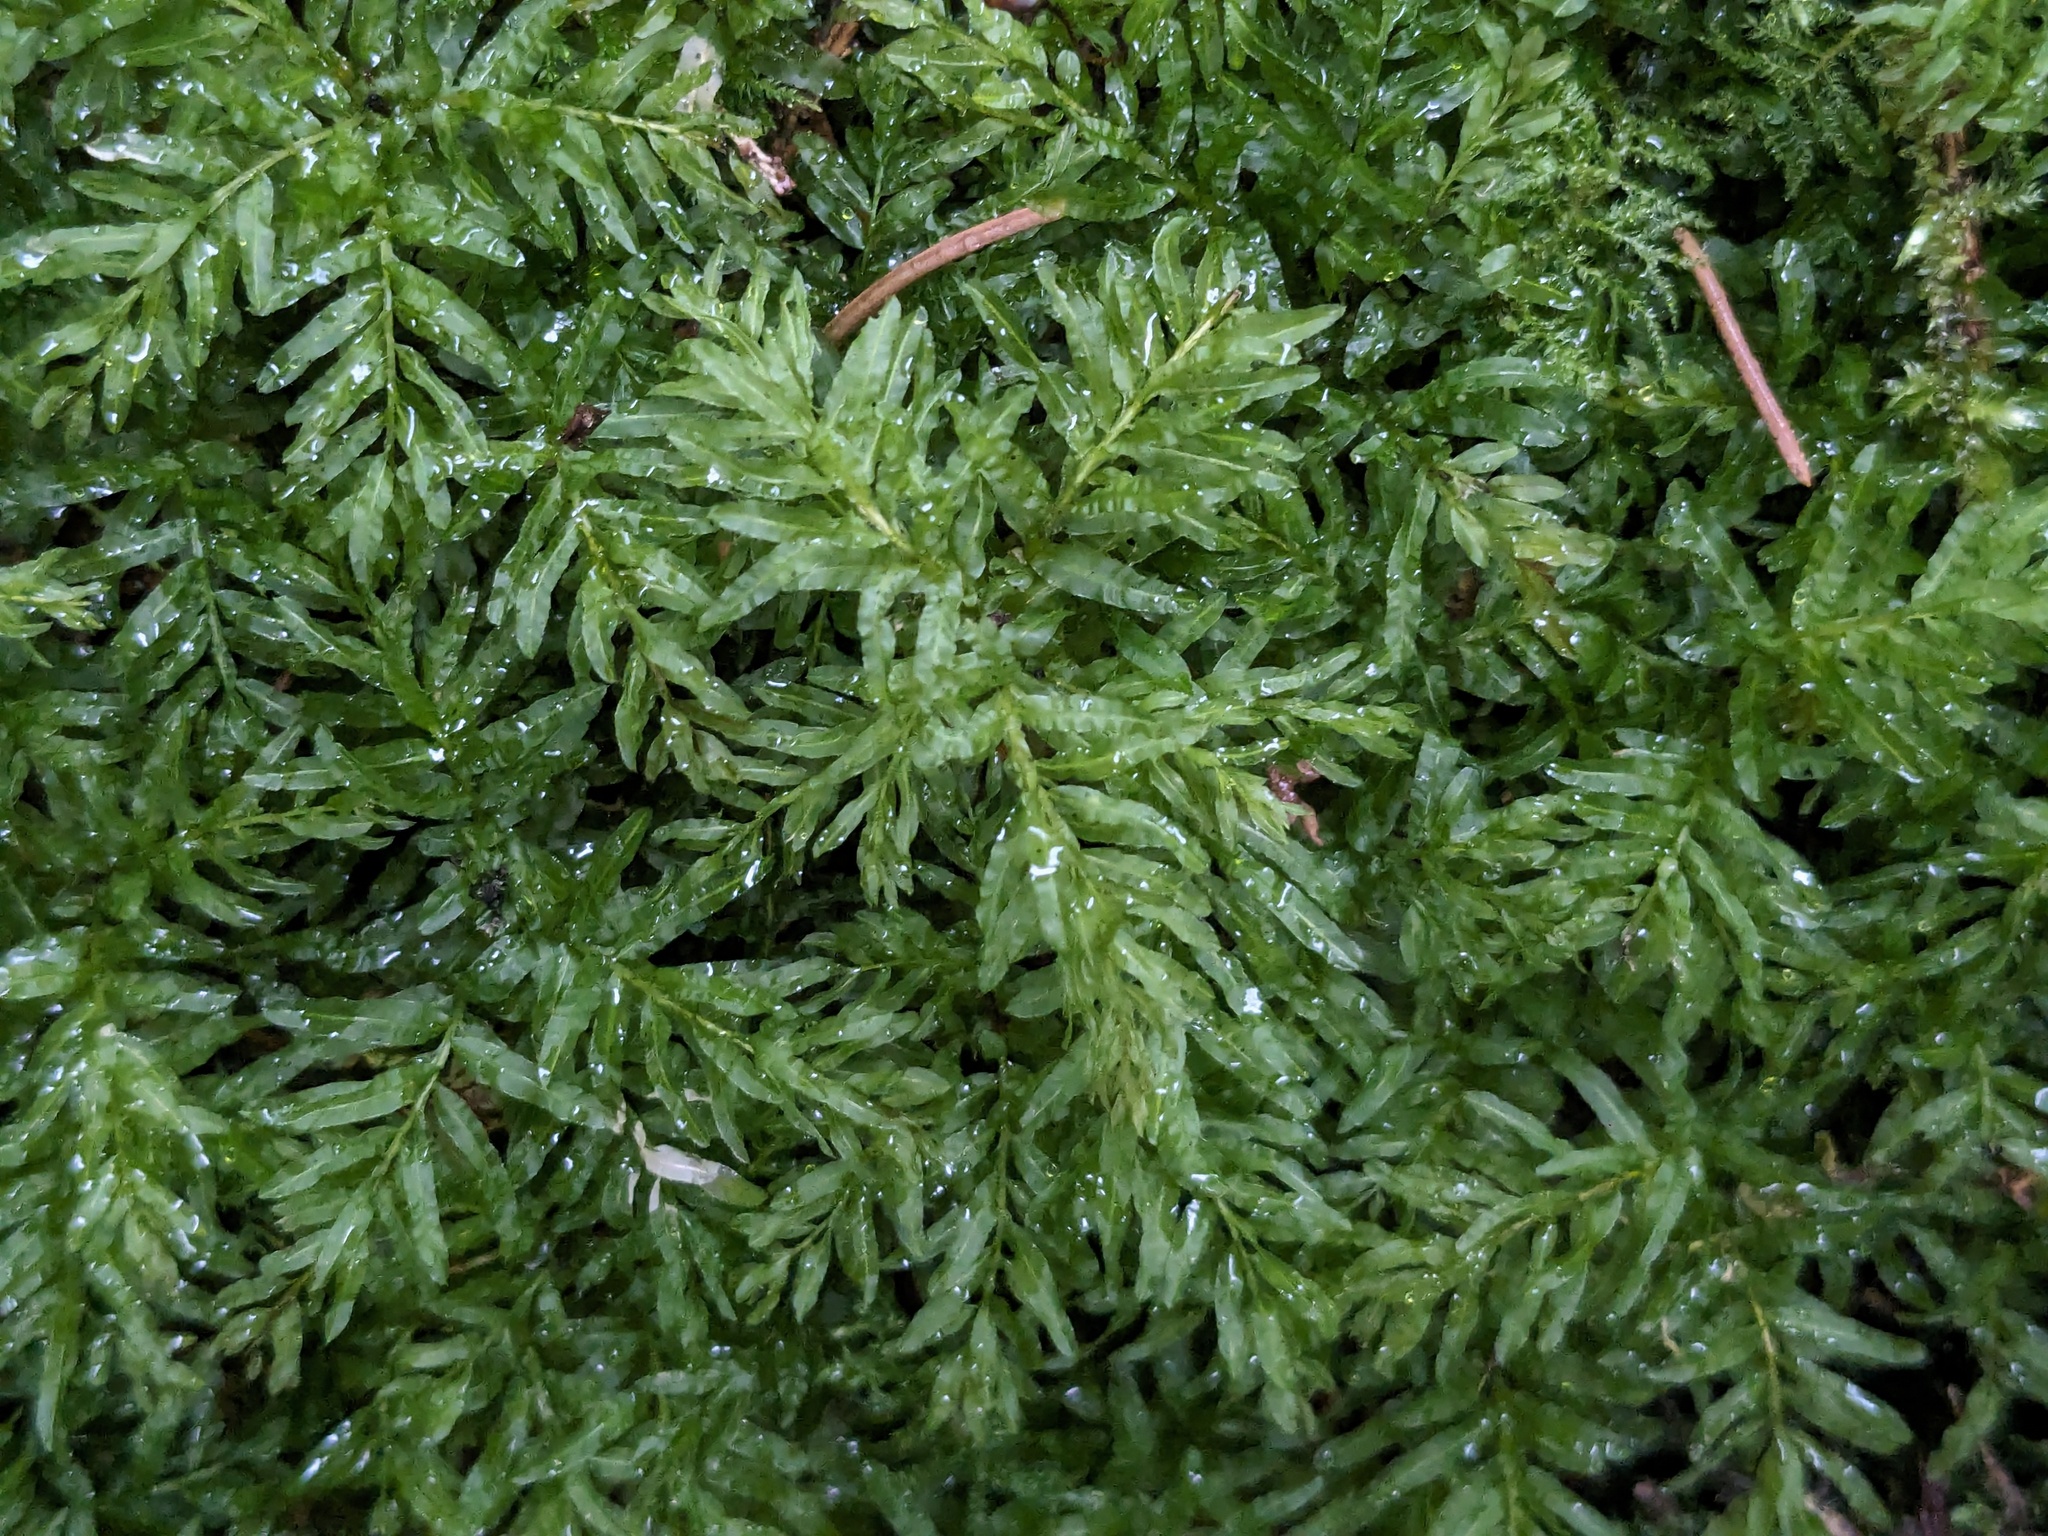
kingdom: Plantae
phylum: Bryophyta
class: Bryopsida
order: Bryales
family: Mniaceae
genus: Plagiomnium
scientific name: Plagiomnium undulatum
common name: Hart's-tongue thyme-moss
